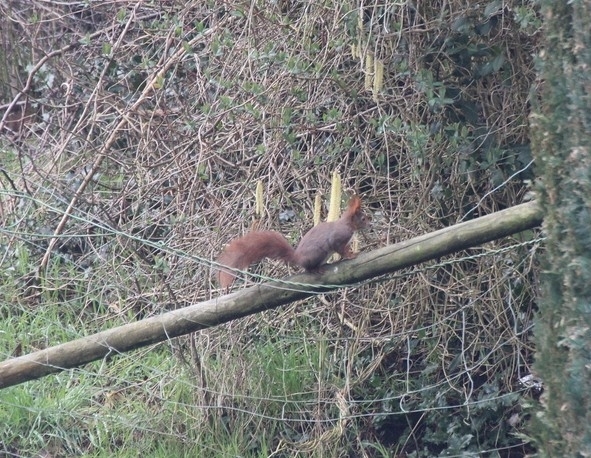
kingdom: Animalia
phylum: Chordata
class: Mammalia
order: Rodentia
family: Sciuridae
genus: Sciurus
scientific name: Sciurus vulgaris
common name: Eurasian red squirrel
